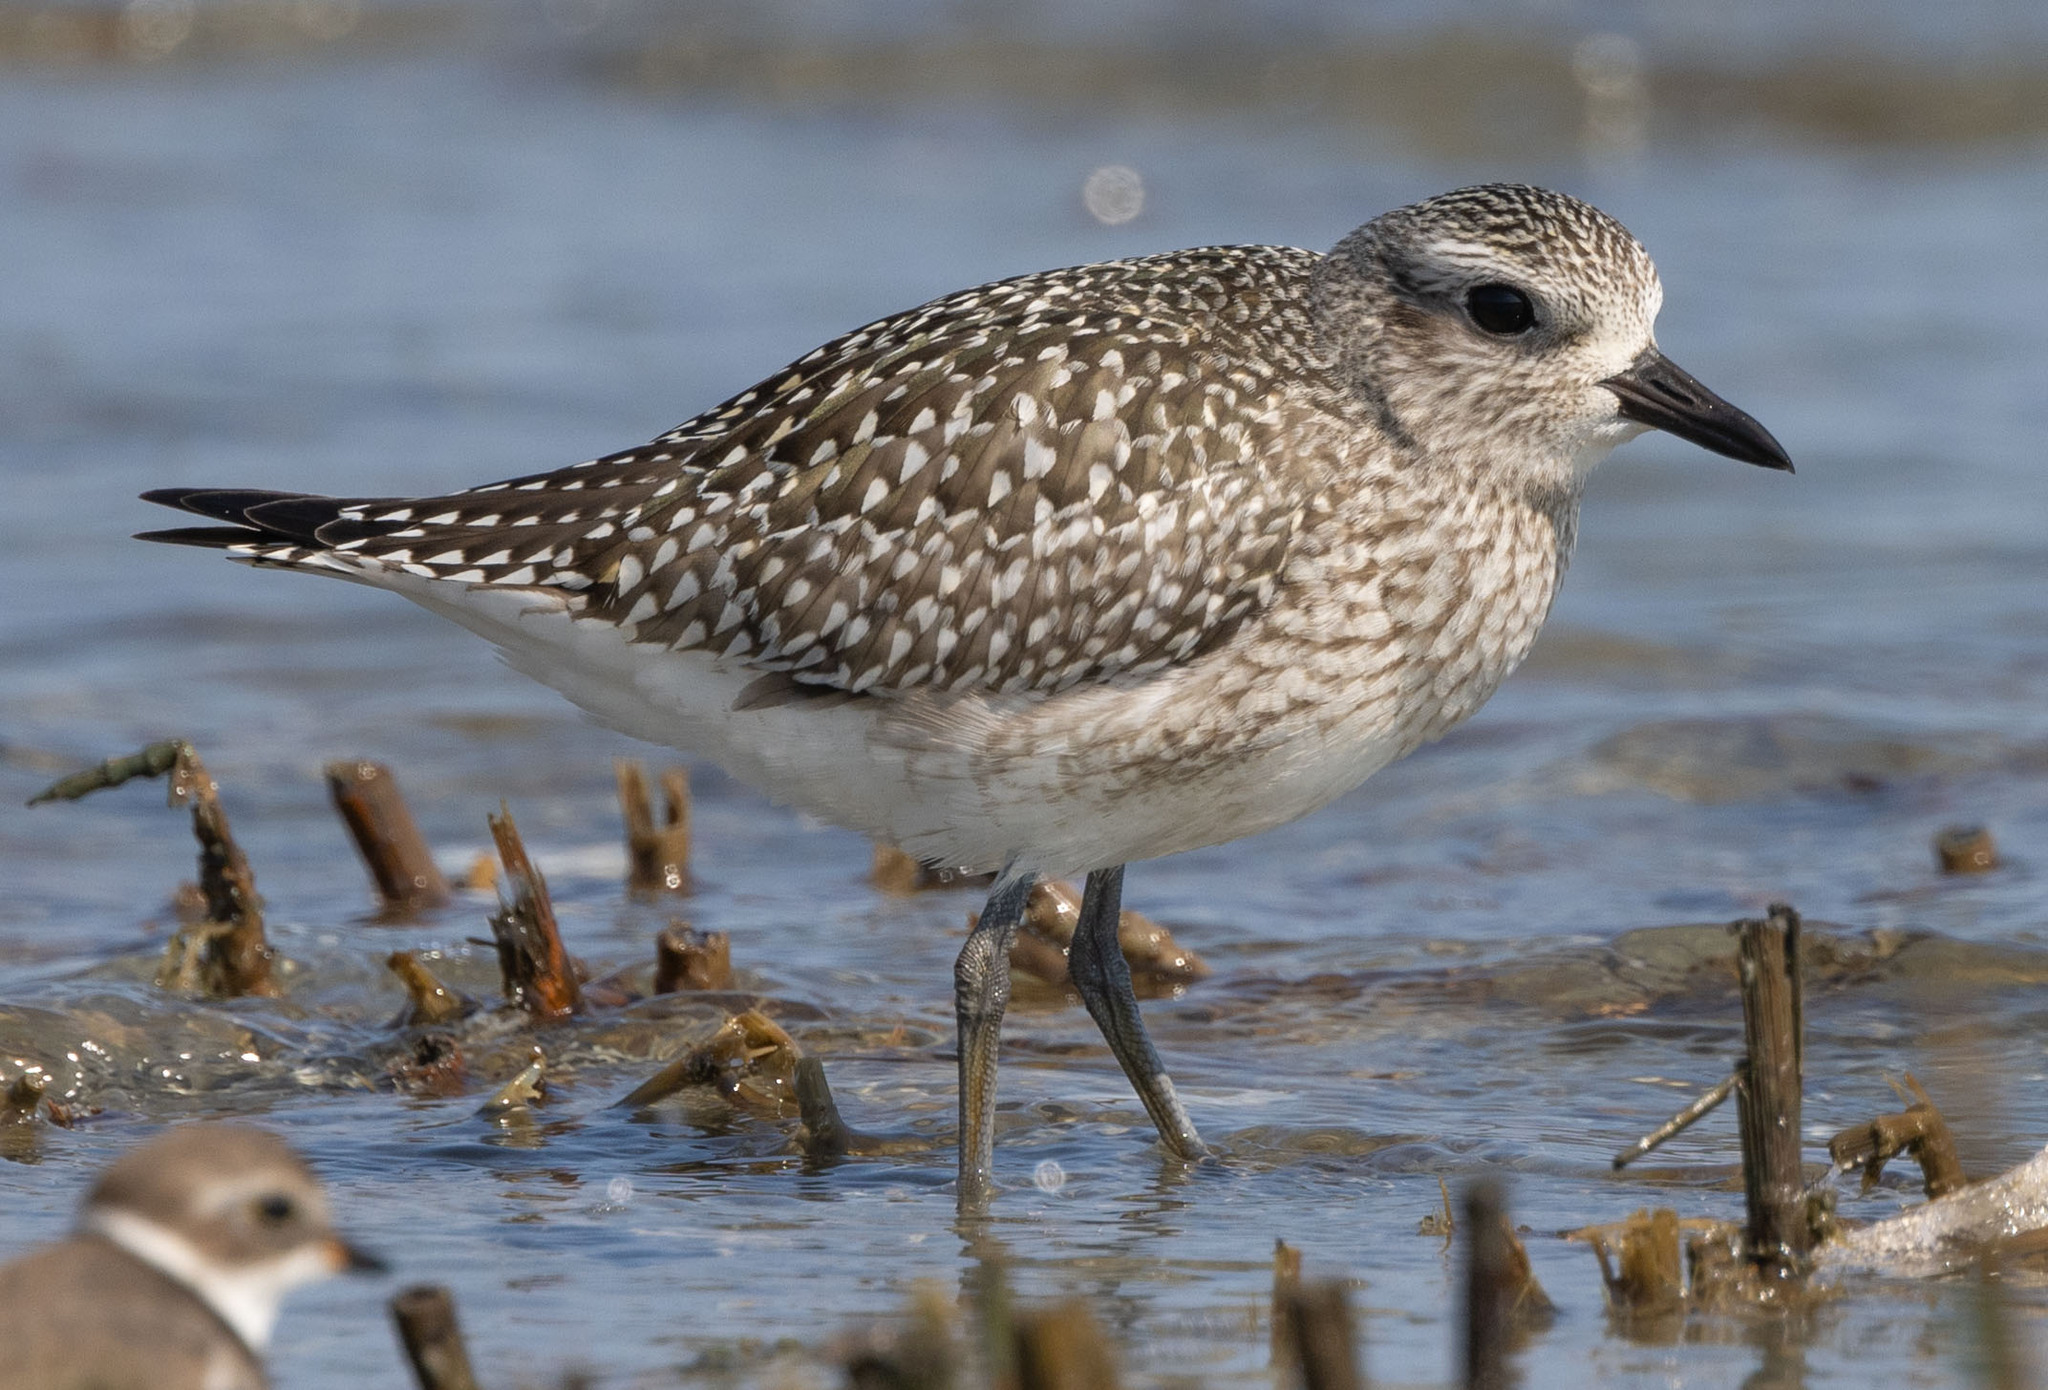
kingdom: Animalia
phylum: Chordata
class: Aves
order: Charadriiformes
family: Charadriidae
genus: Pluvialis
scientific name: Pluvialis squatarola
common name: Grey plover
